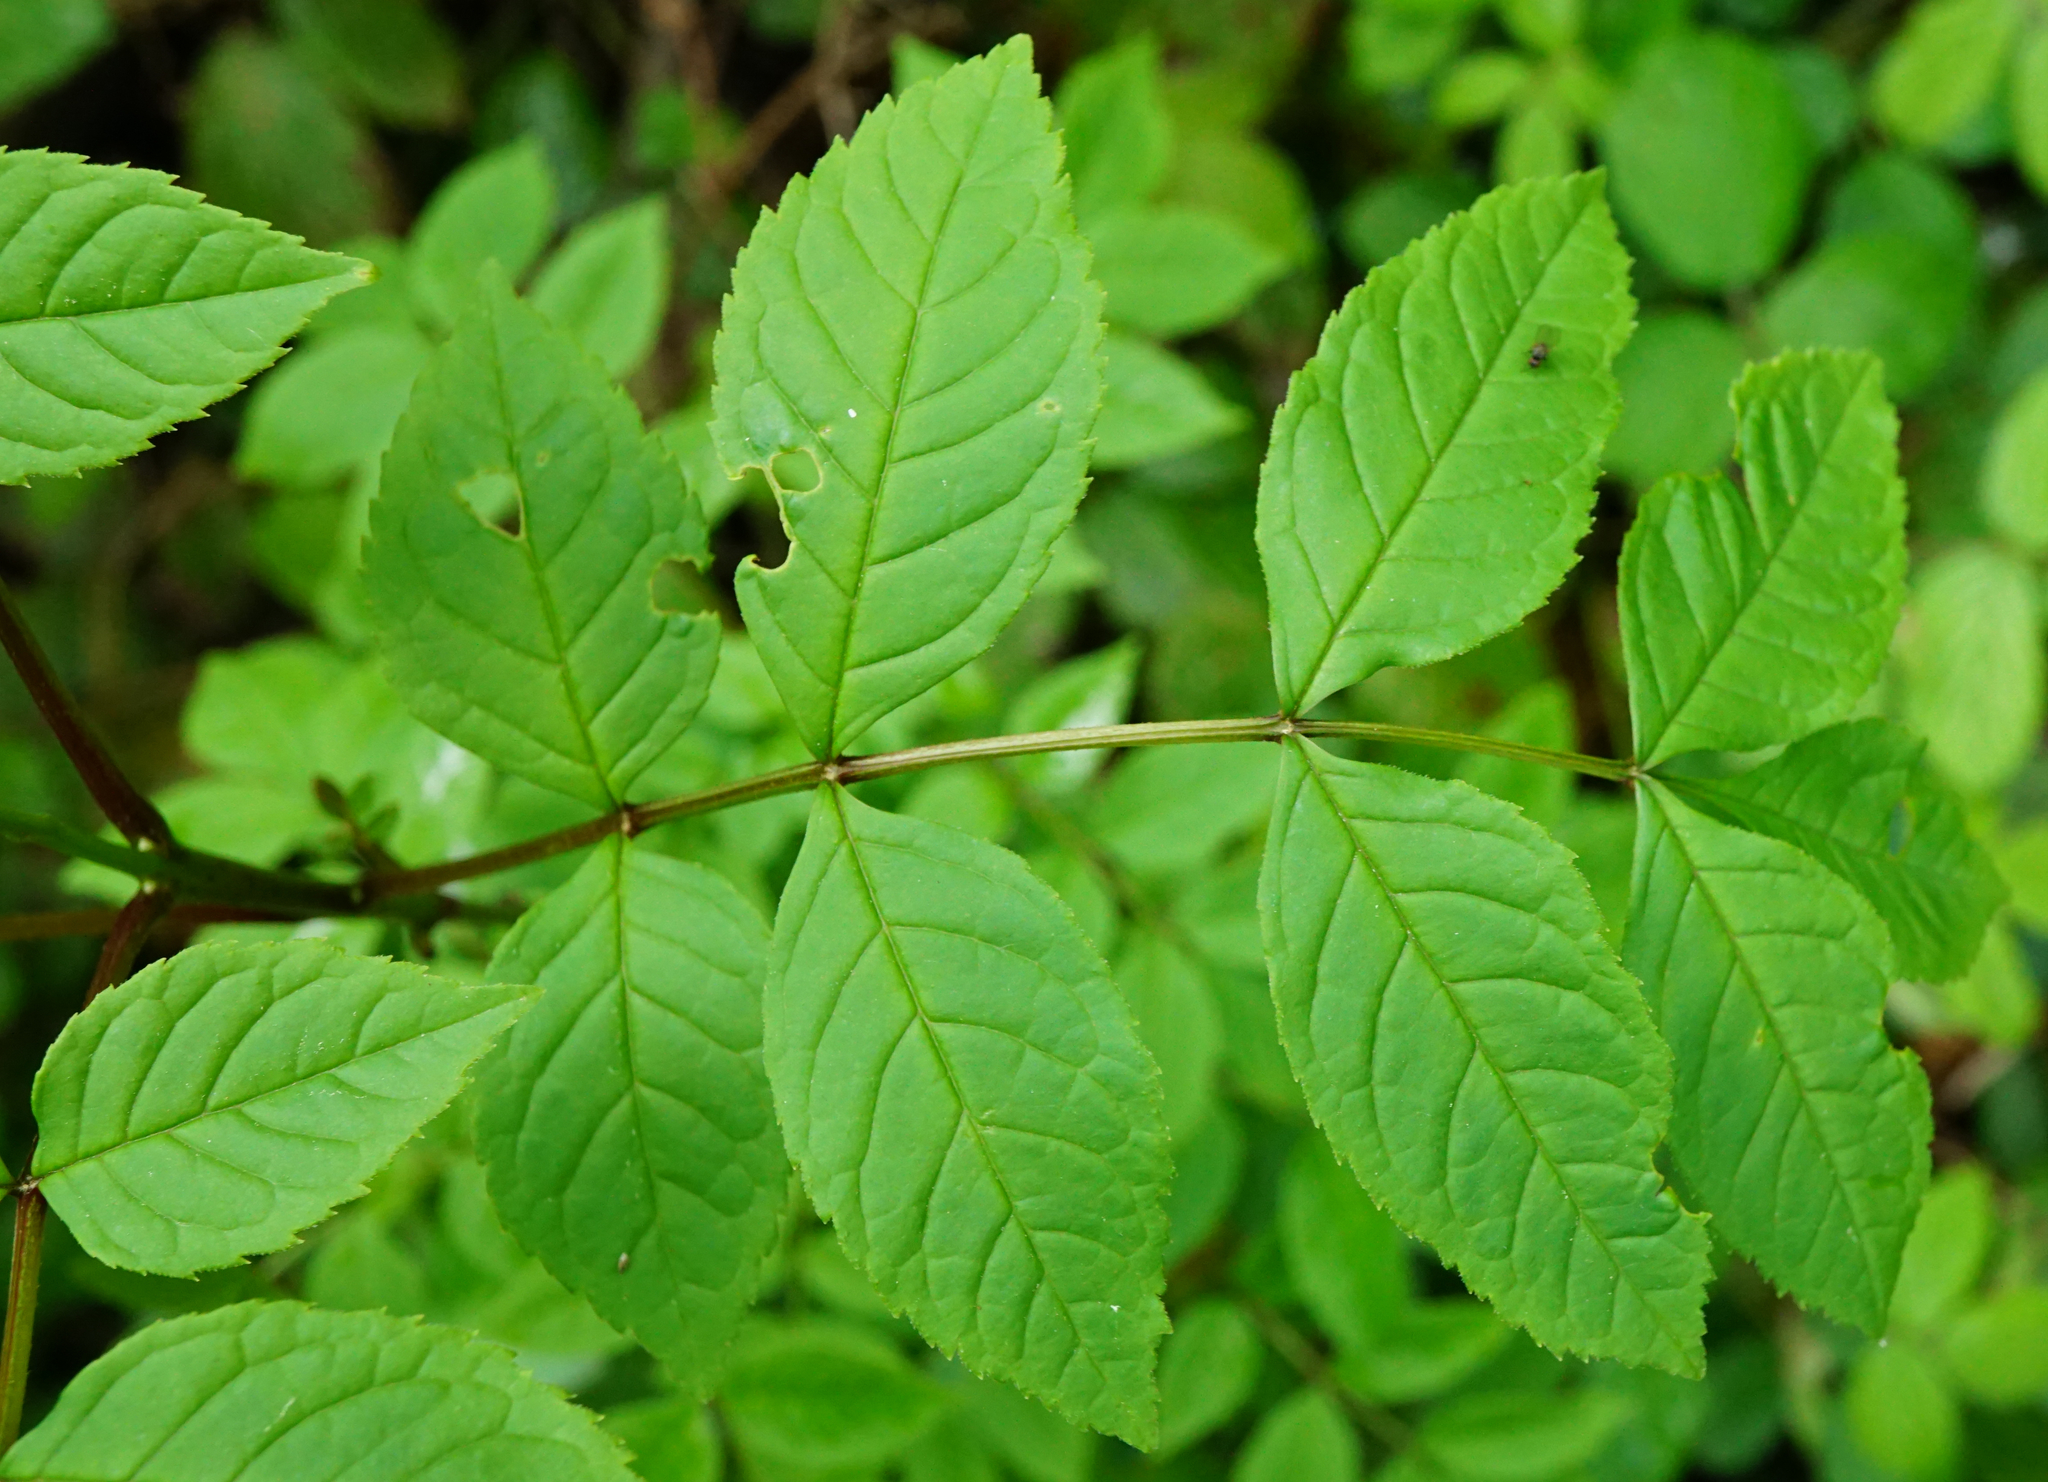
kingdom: Plantae
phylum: Tracheophyta
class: Magnoliopsida
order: Lamiales
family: Oleaceae
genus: Fraxinus
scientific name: Fraxinus excelsior
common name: European ash
